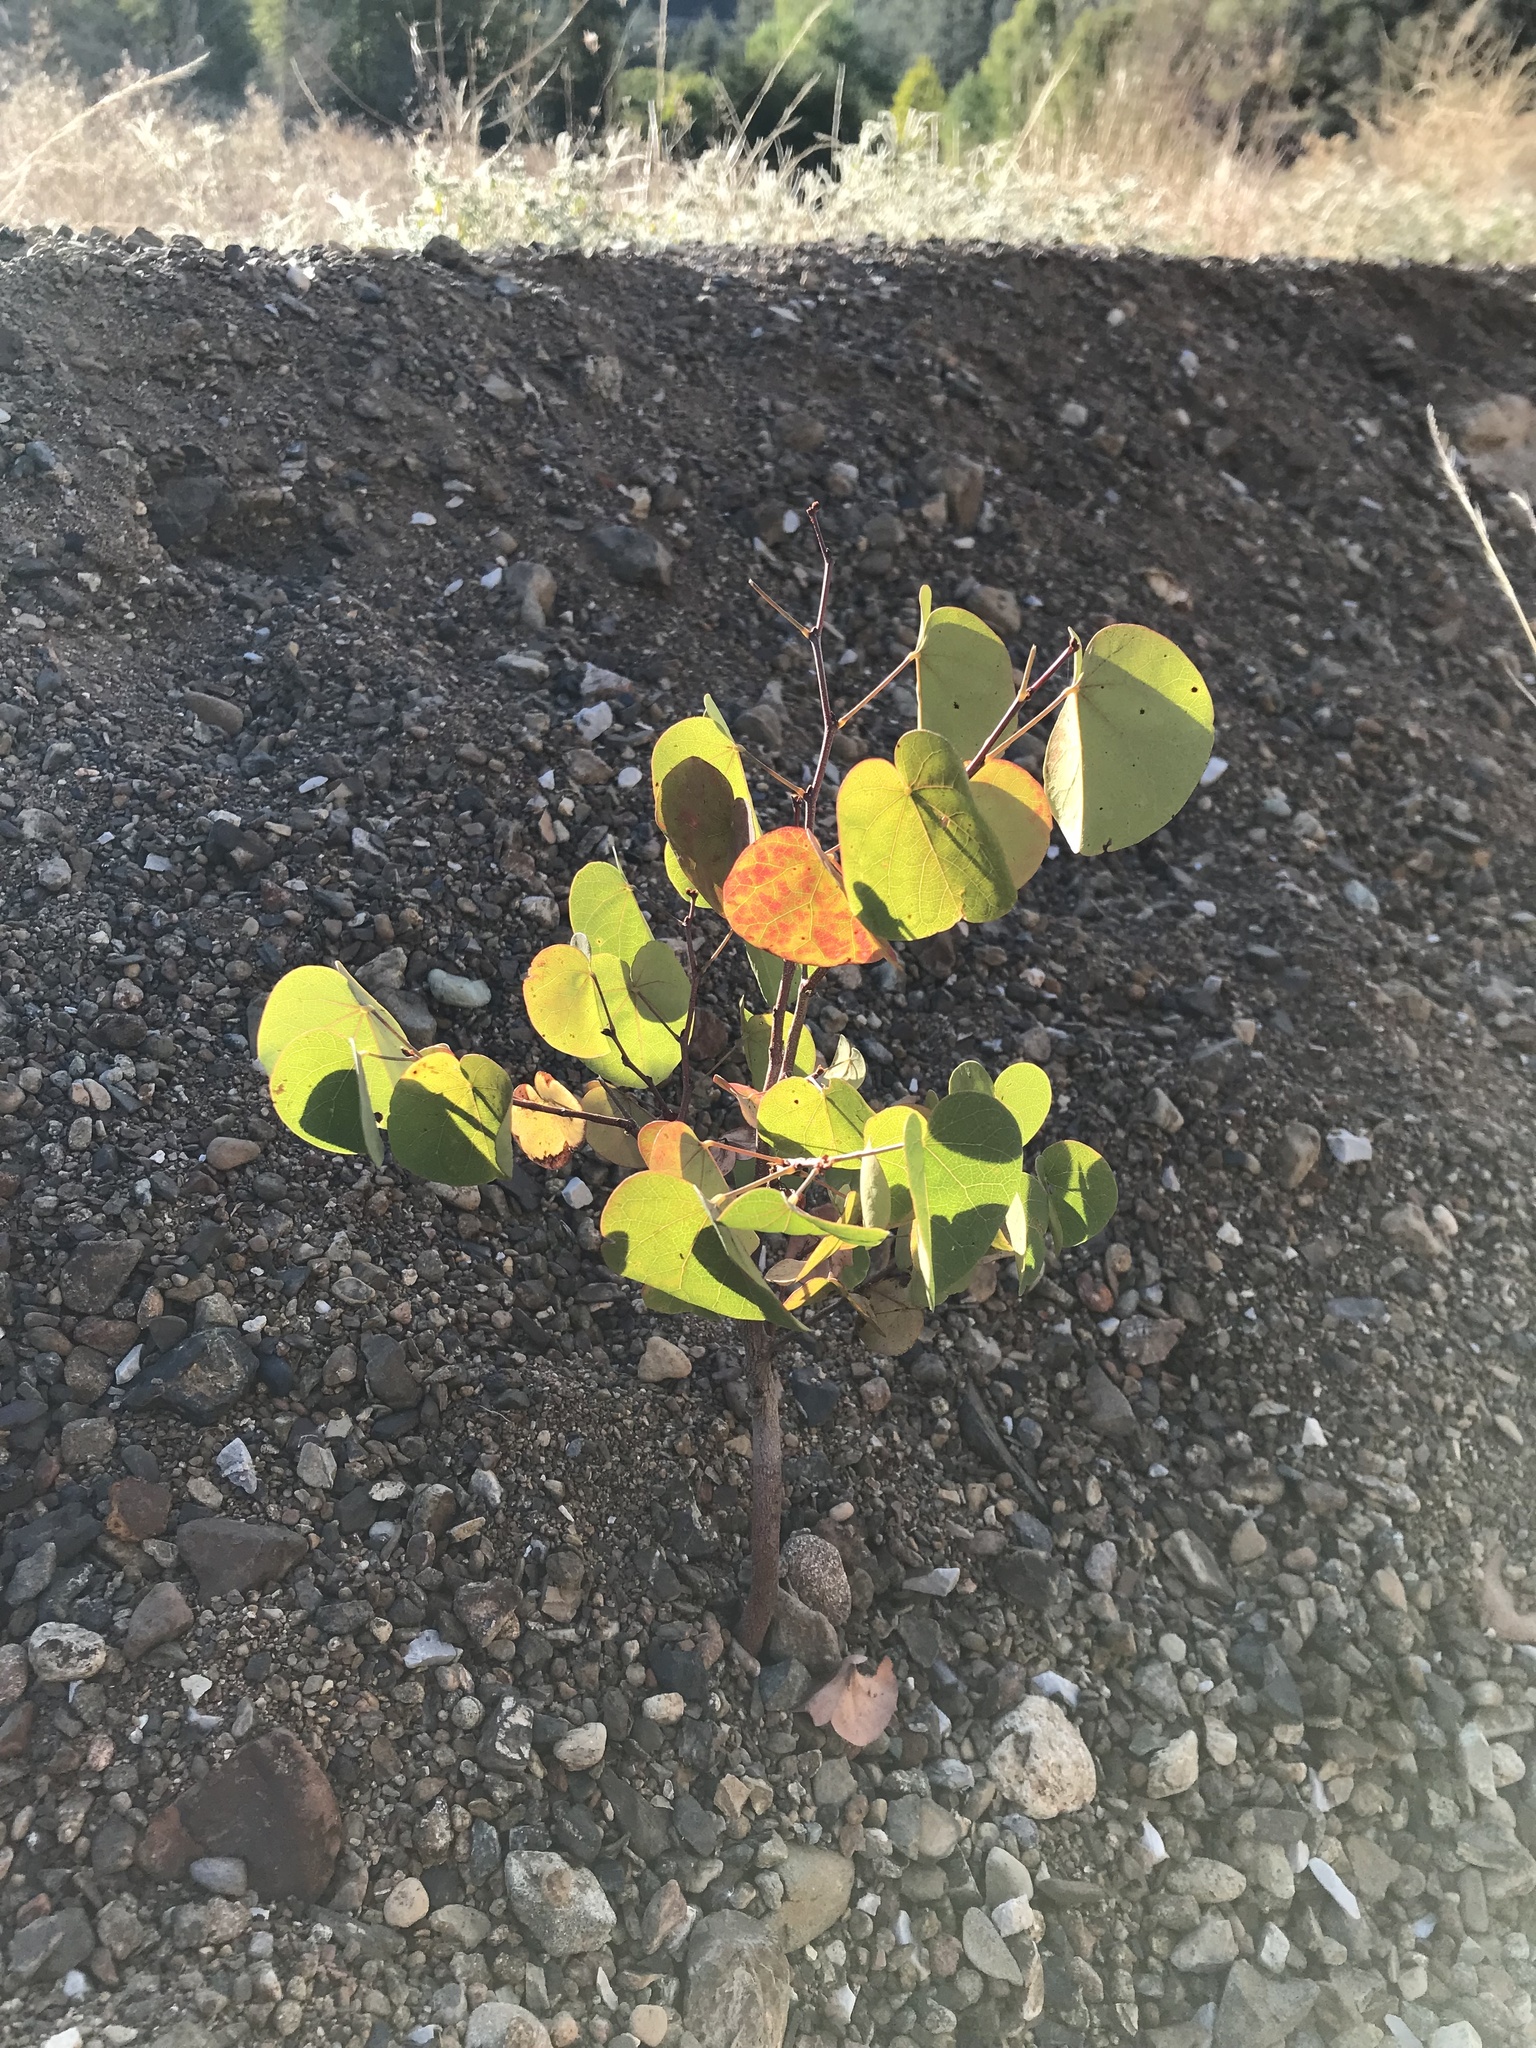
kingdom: Plantae
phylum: Tracheophyta
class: Magnoliopsida
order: Fabales
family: Fabaceae
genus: Cercis
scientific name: Cercis occidentalis
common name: California redbud
